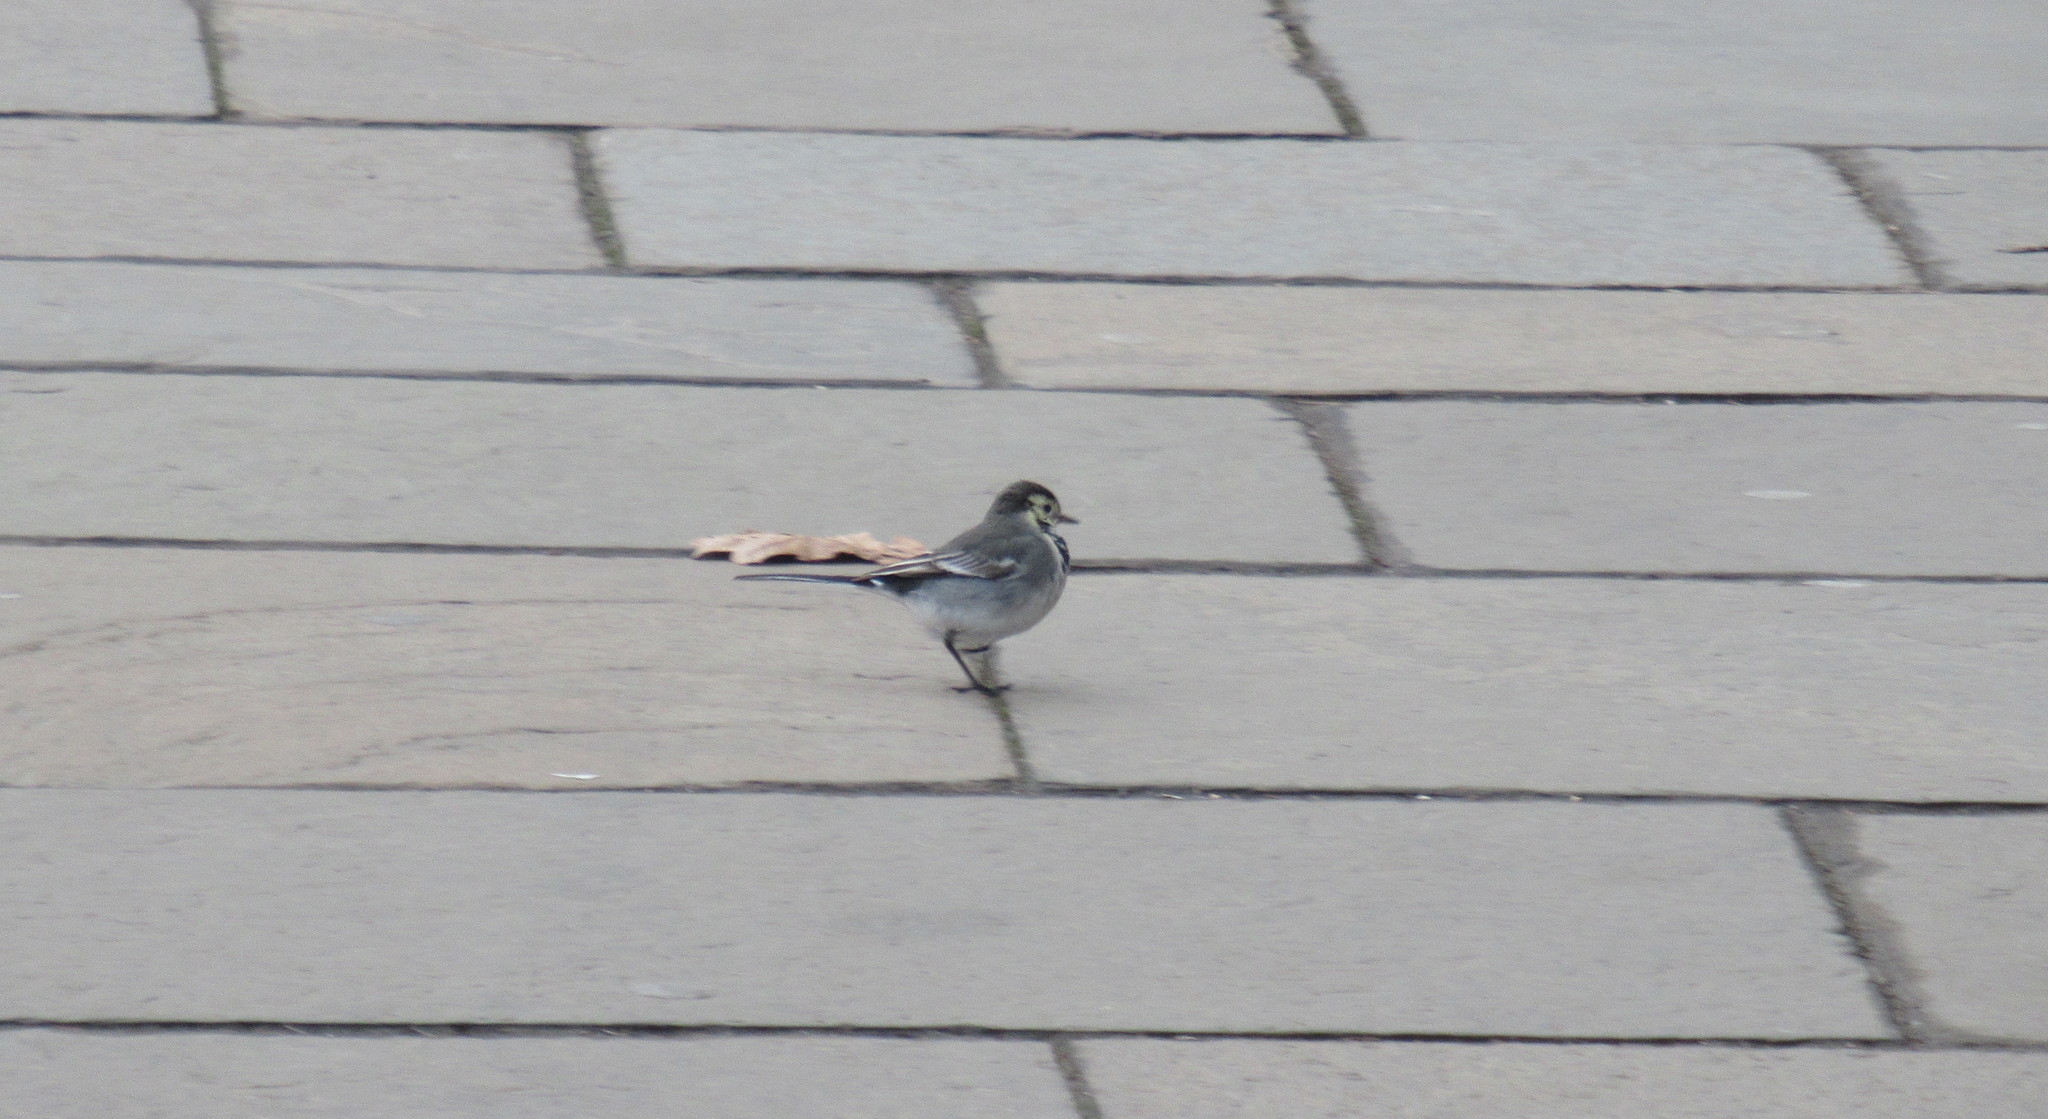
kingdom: Animalia
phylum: Chordata
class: Aves
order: Passeriformes
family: Motacillidae
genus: Motacilla
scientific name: Motacilla alba
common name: White wagtail
